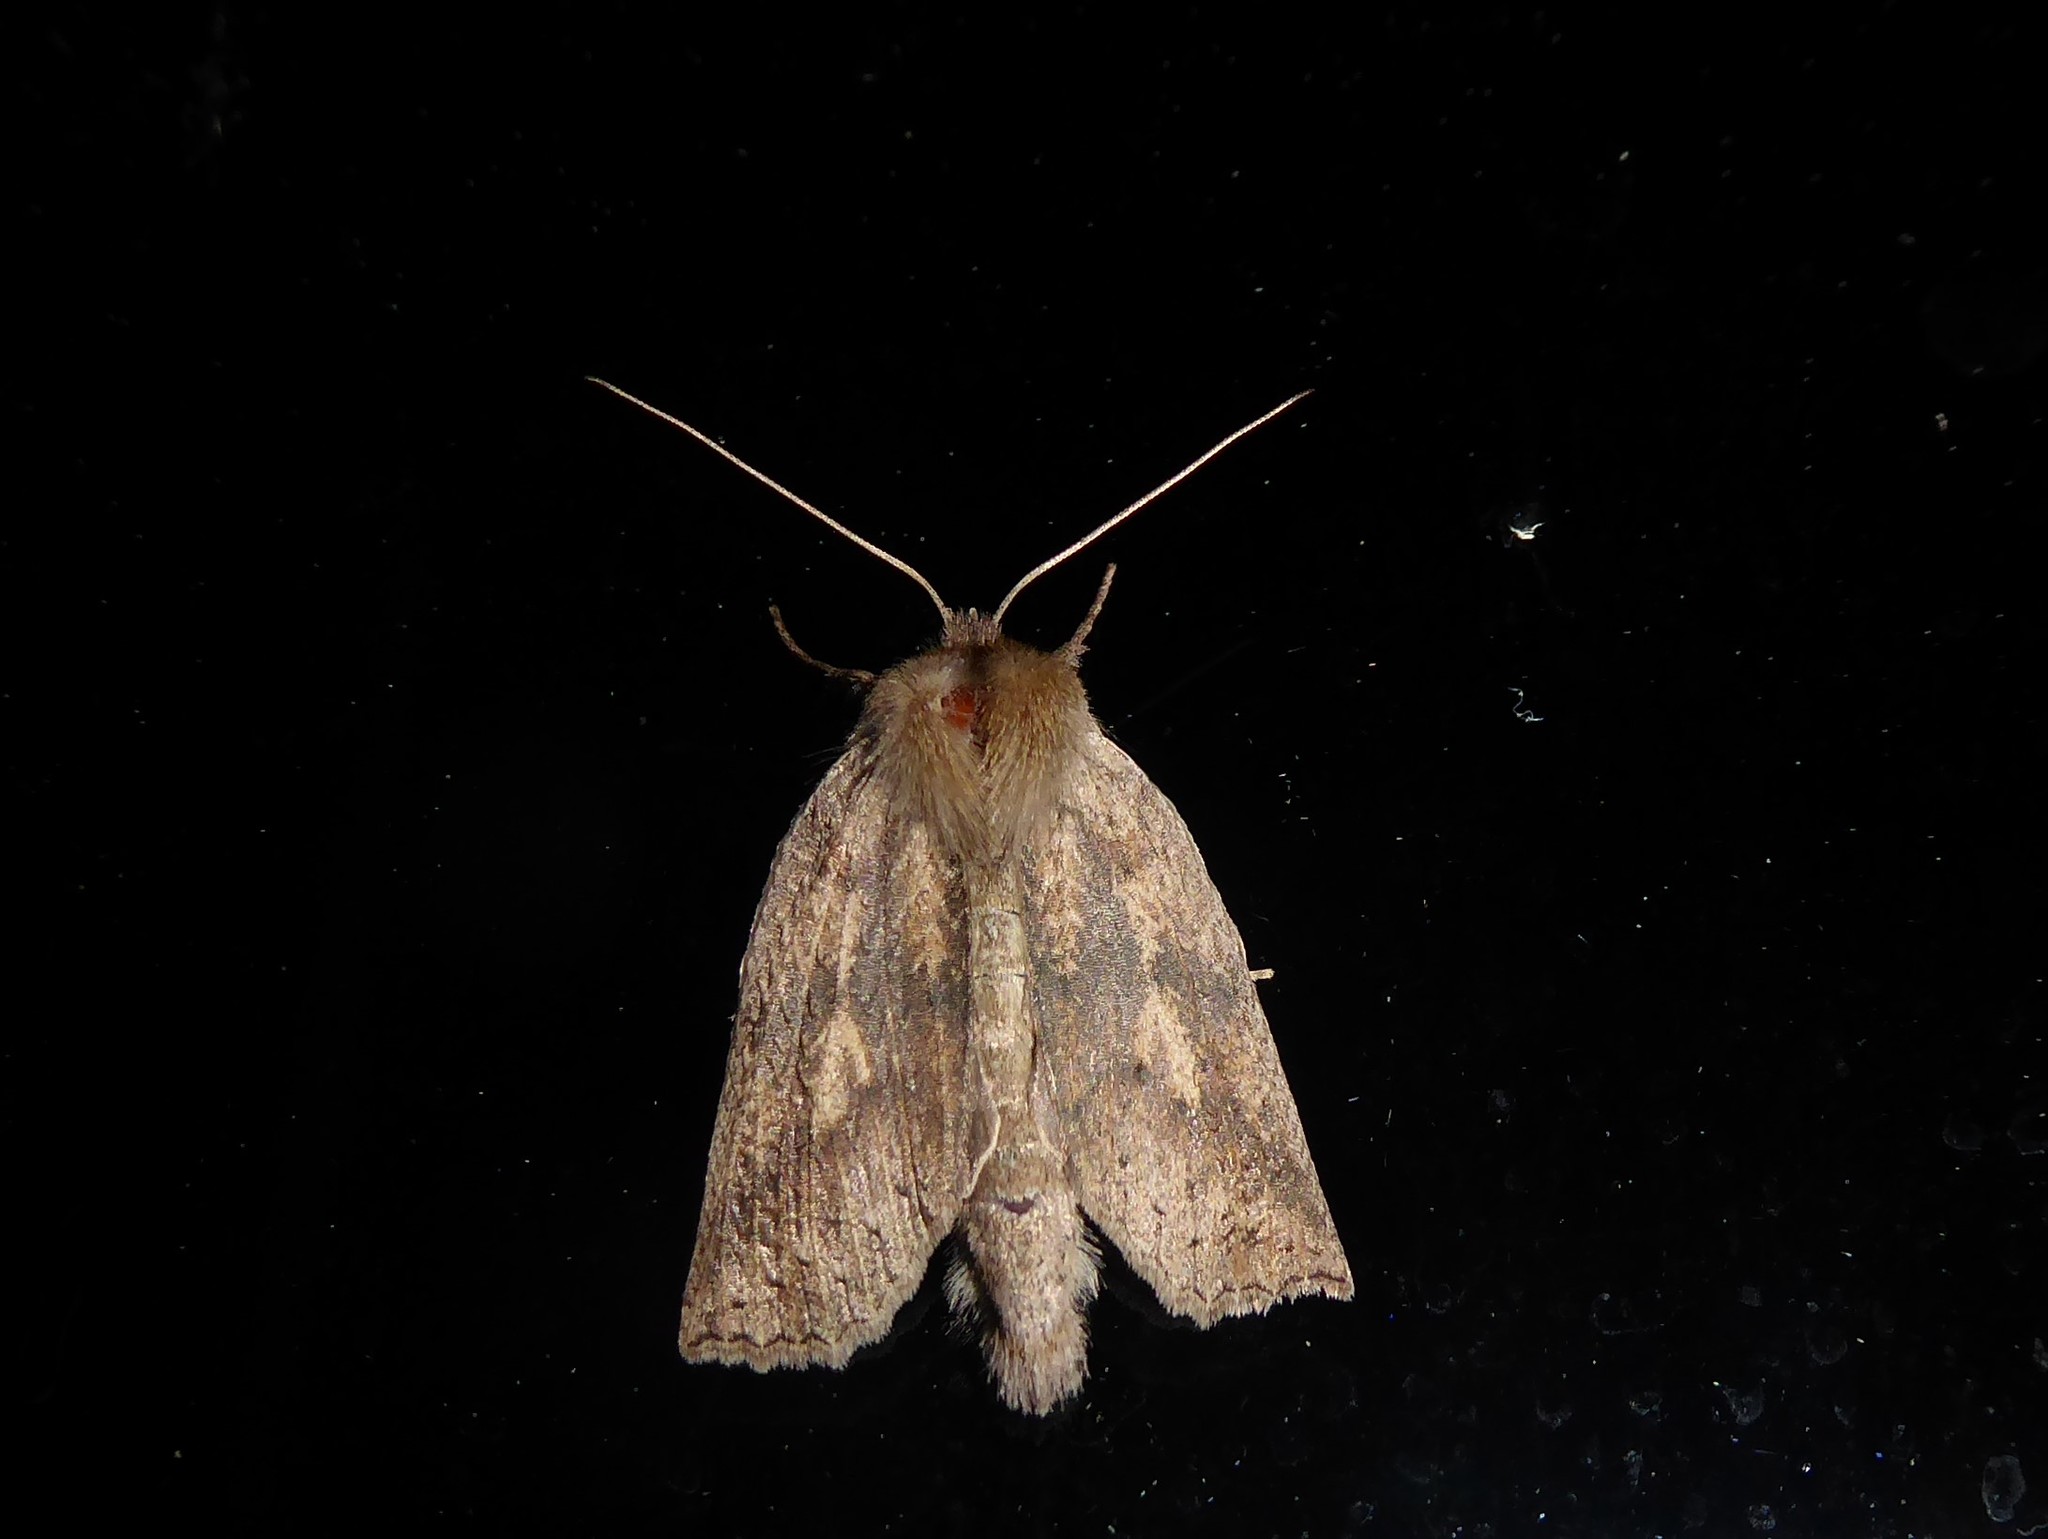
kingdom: Animalia
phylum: Arthropoda
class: Insecta
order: Lepidoptera
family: Geometridae
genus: Declana
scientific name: Declana leptomera
